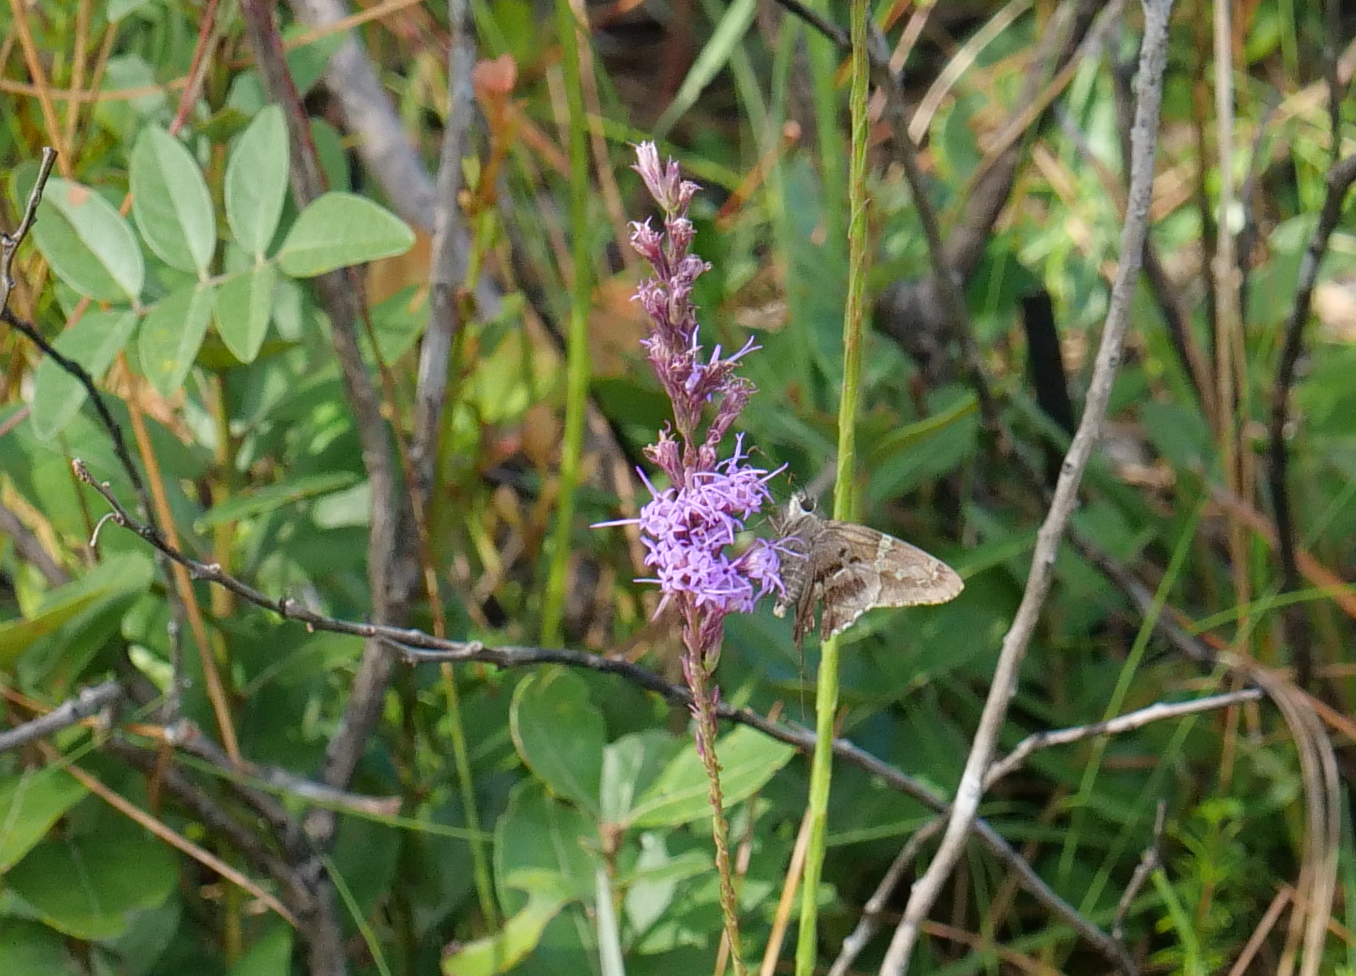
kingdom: Animalia
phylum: Arthropoda
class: Insecta
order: Lepidoptera
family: Hesperiidae
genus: Urbanus
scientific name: Urbanus proteus
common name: Long-tailed skipper
